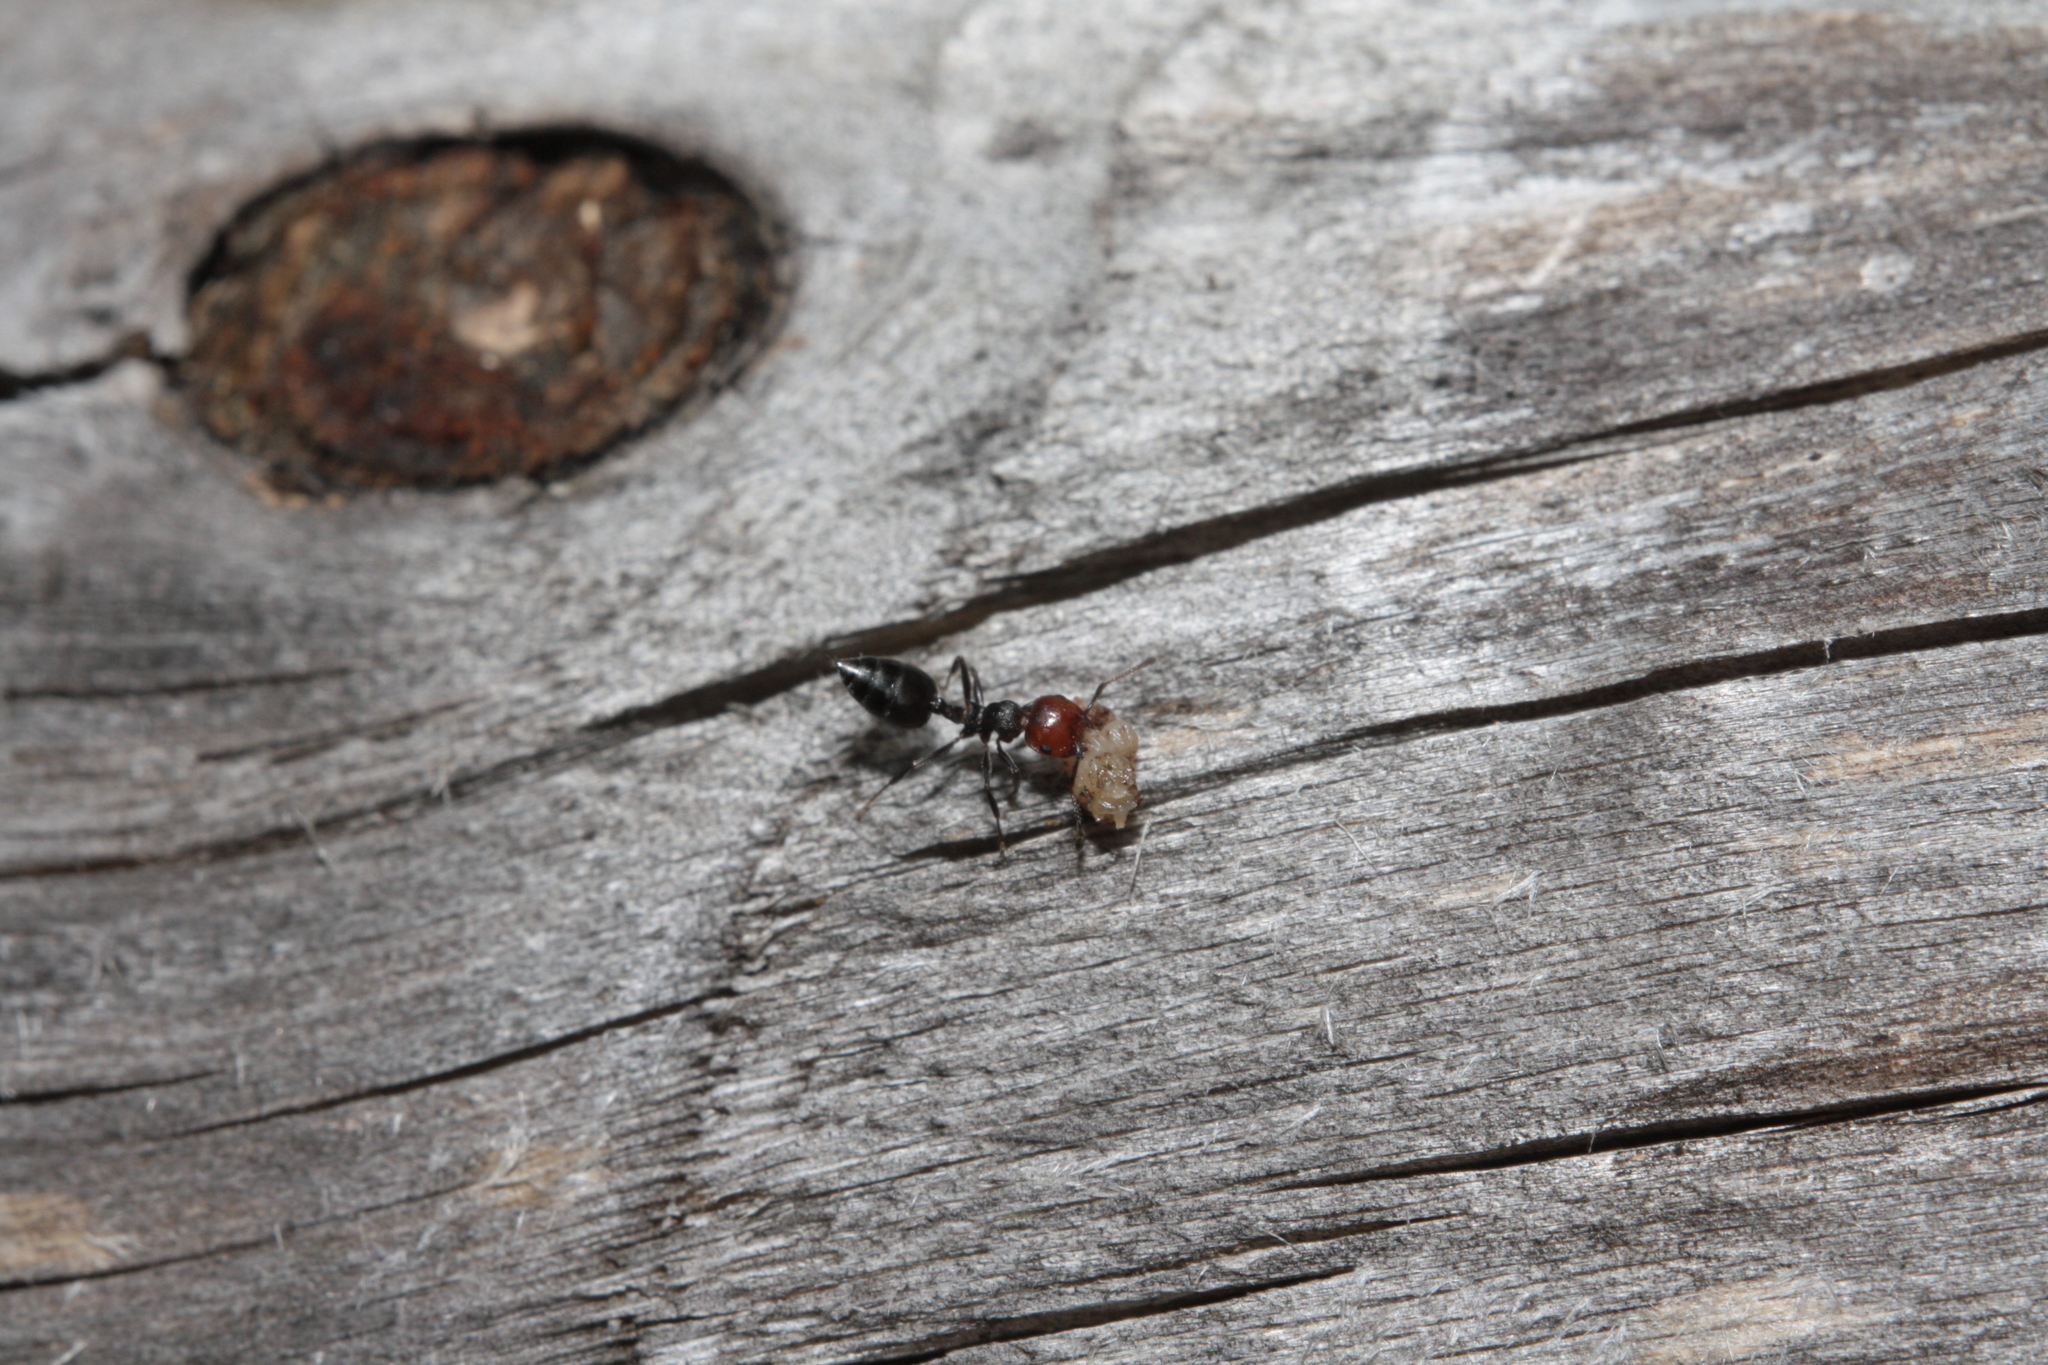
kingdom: Animalia
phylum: Arthropoda
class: Insecta
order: Hymenoptera
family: Formicidae
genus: Crematogaster
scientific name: Crematogaster scutellaris
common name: Fourmi du liège
